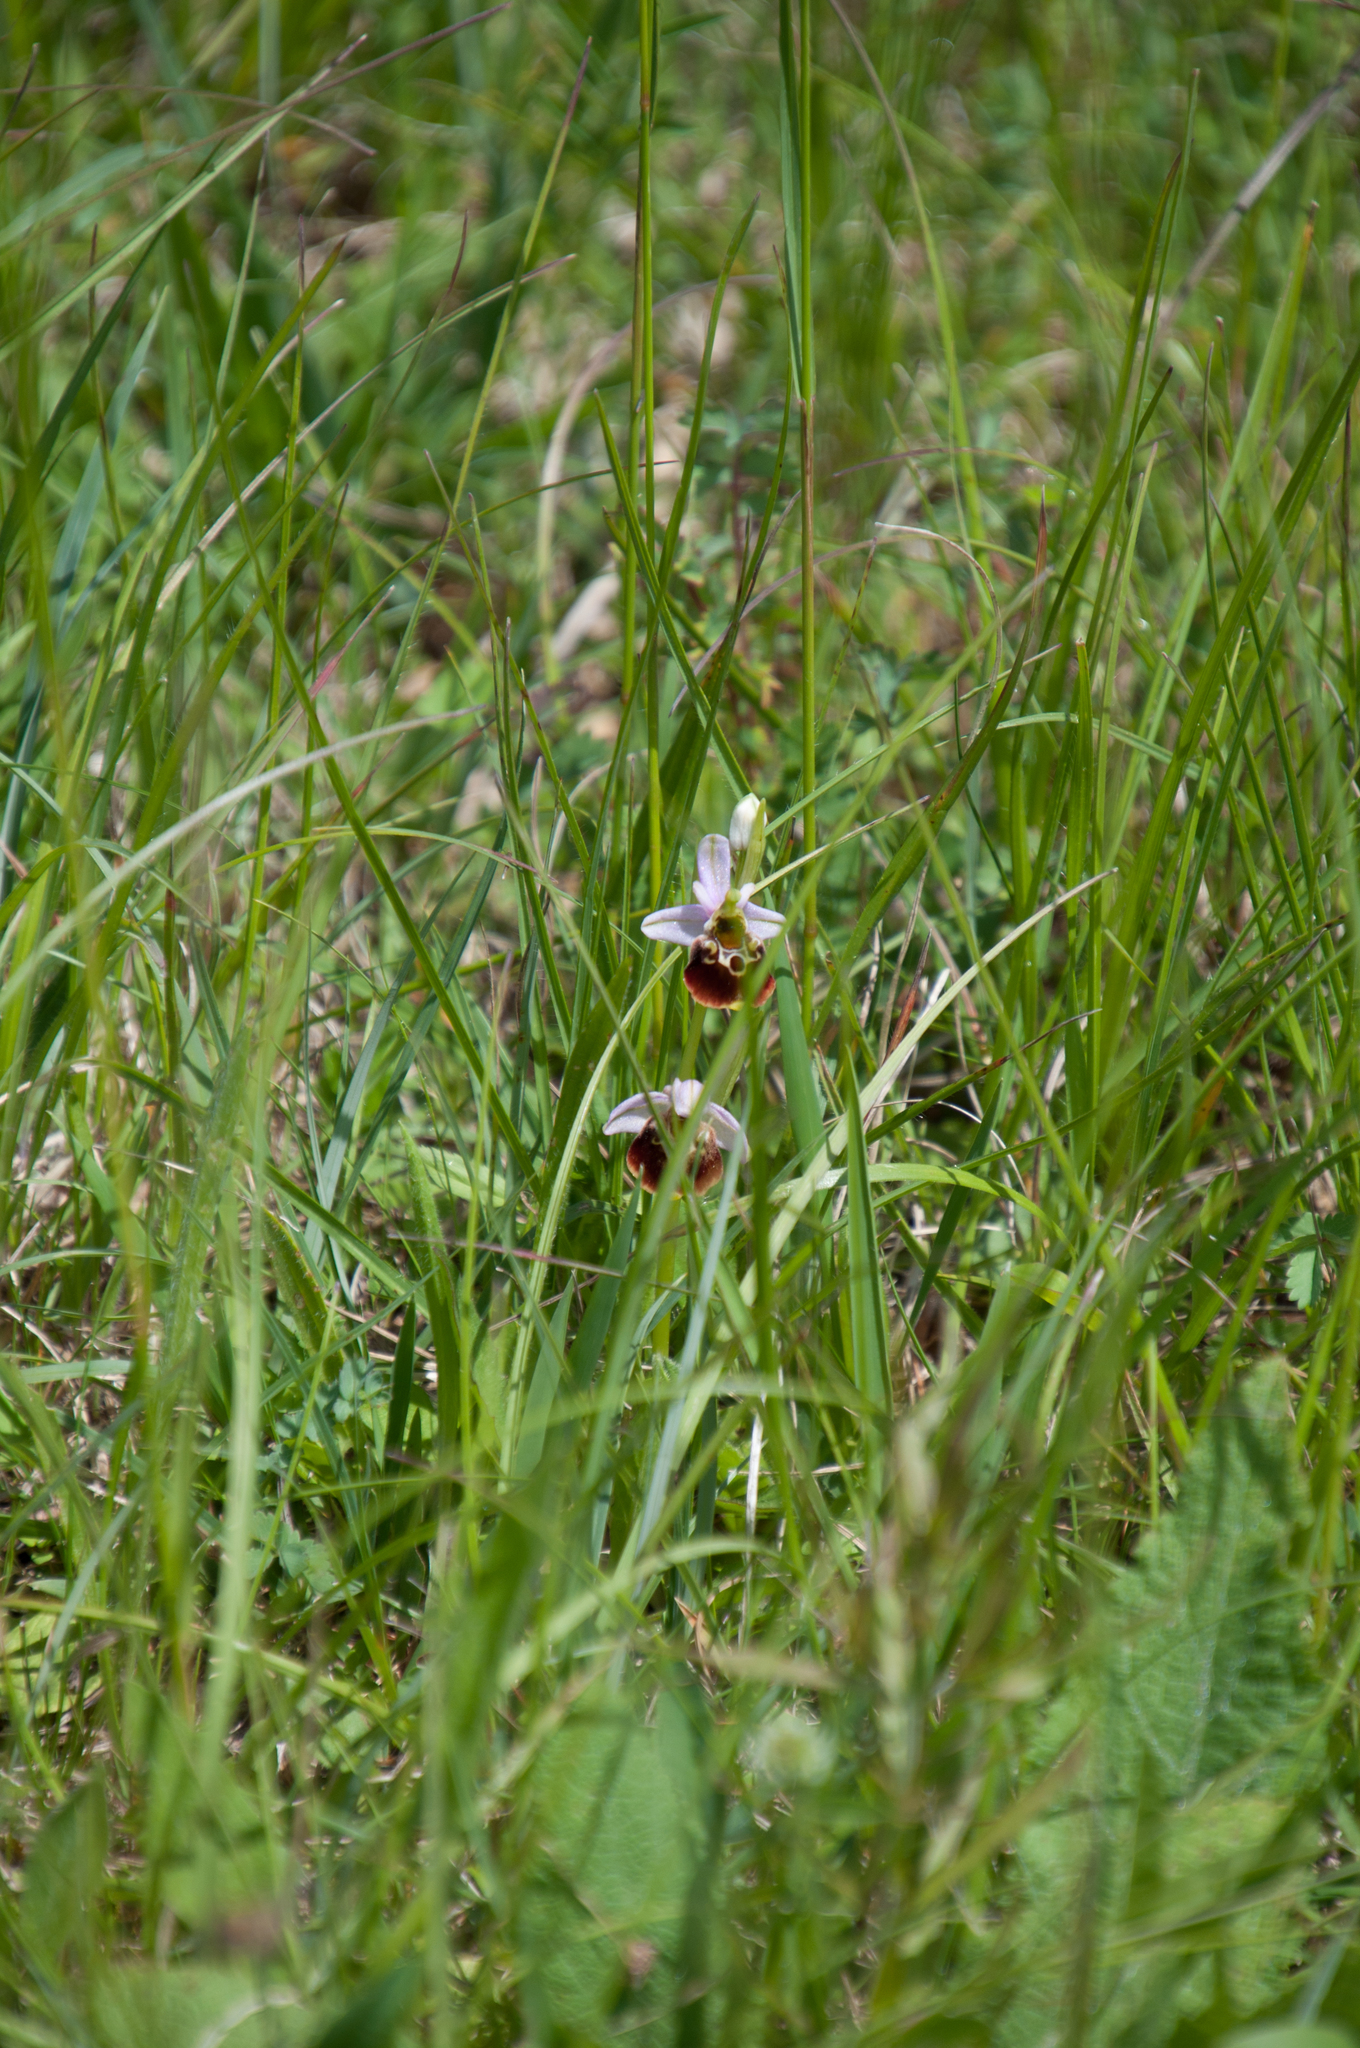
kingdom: Plantae
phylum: Tracheophyta
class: Liliopsida
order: Asparagales
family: Orchidaceae
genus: Ophrys
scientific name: Ophrys holosericea
